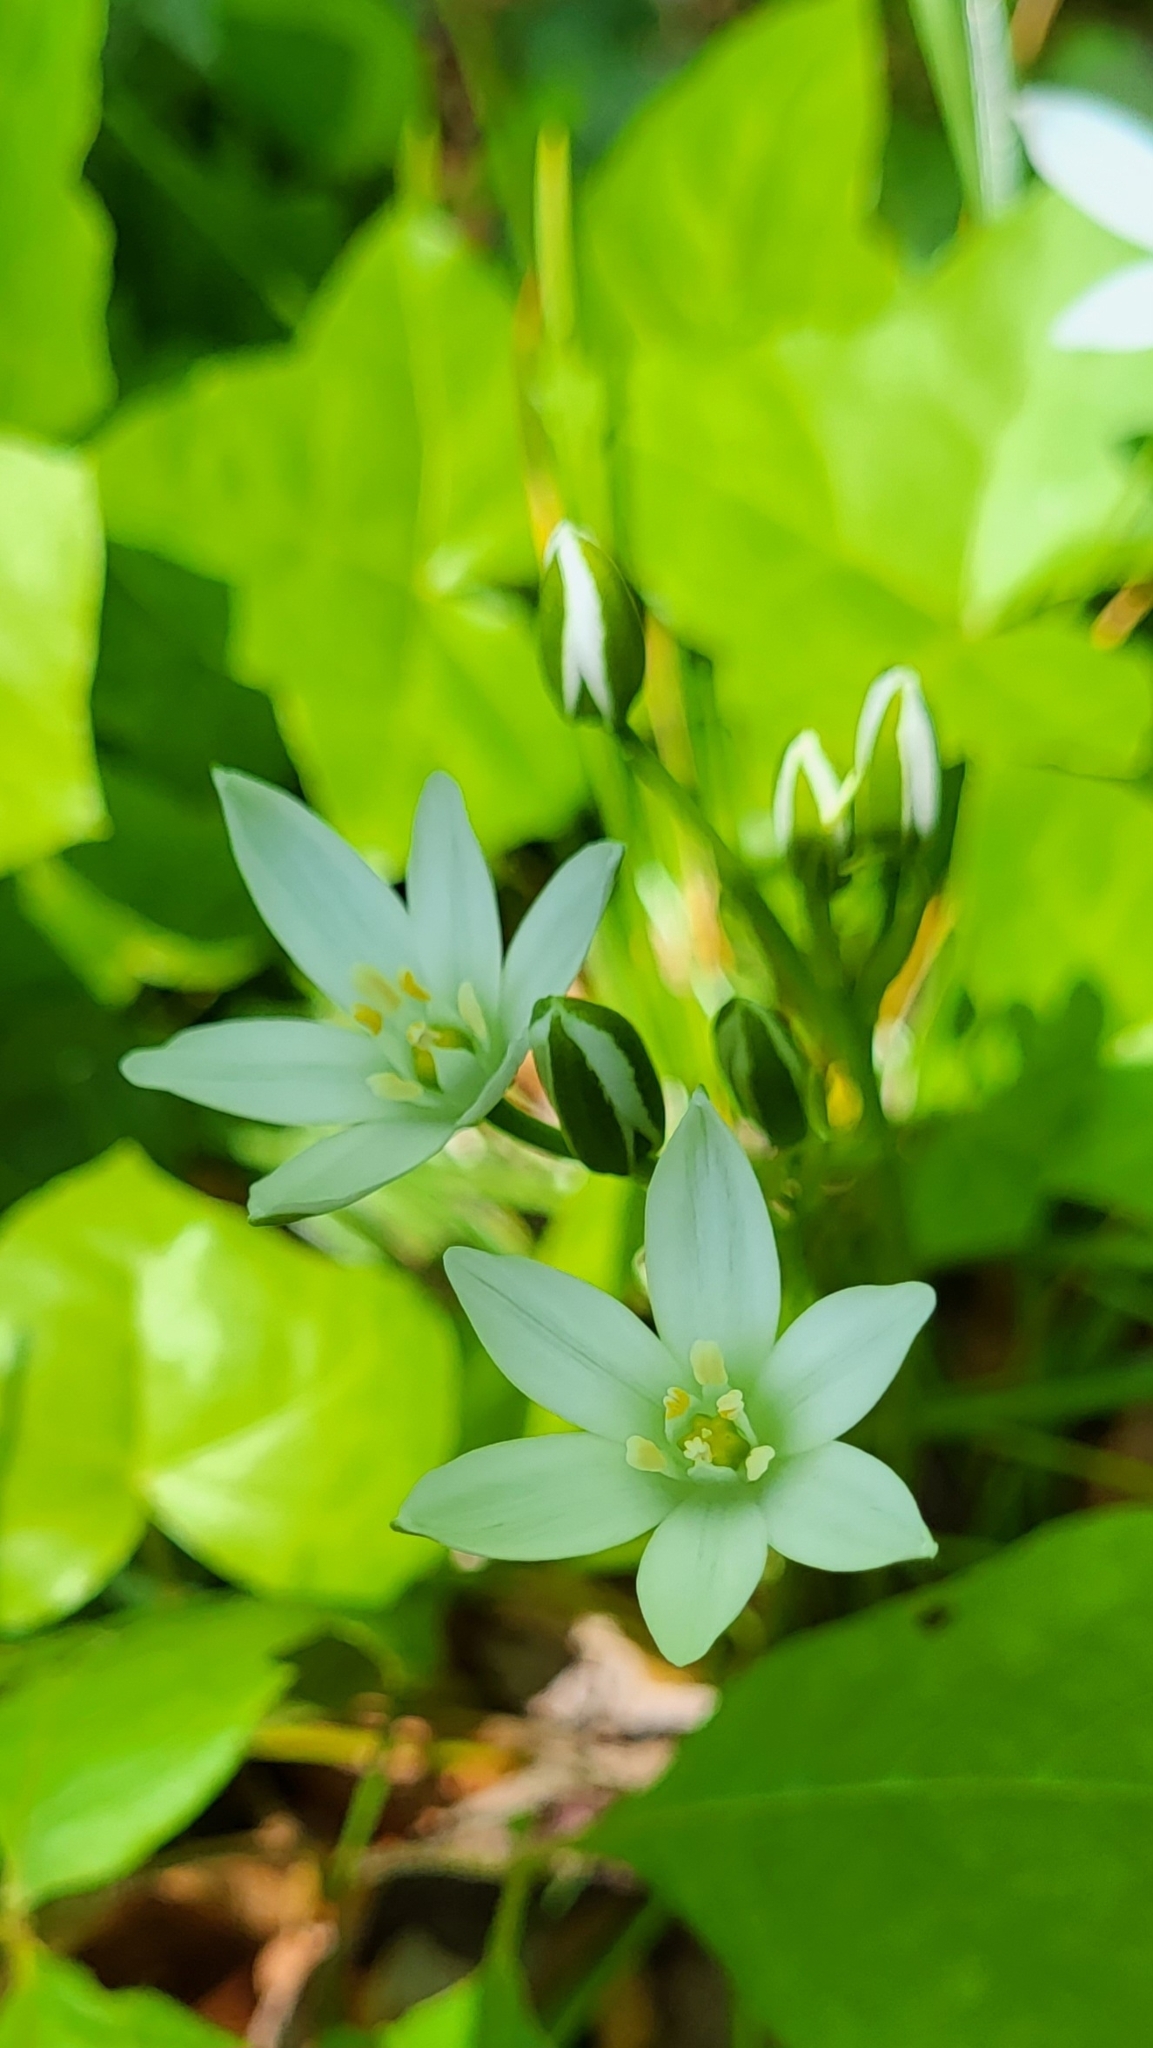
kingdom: Plantae
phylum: Tracheophyta
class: Liliopsida
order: Asparagales
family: Asparagaceae
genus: Ornithogalum
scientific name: Ornithogalum umbellatum
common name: Garden star-of-bethlehem
